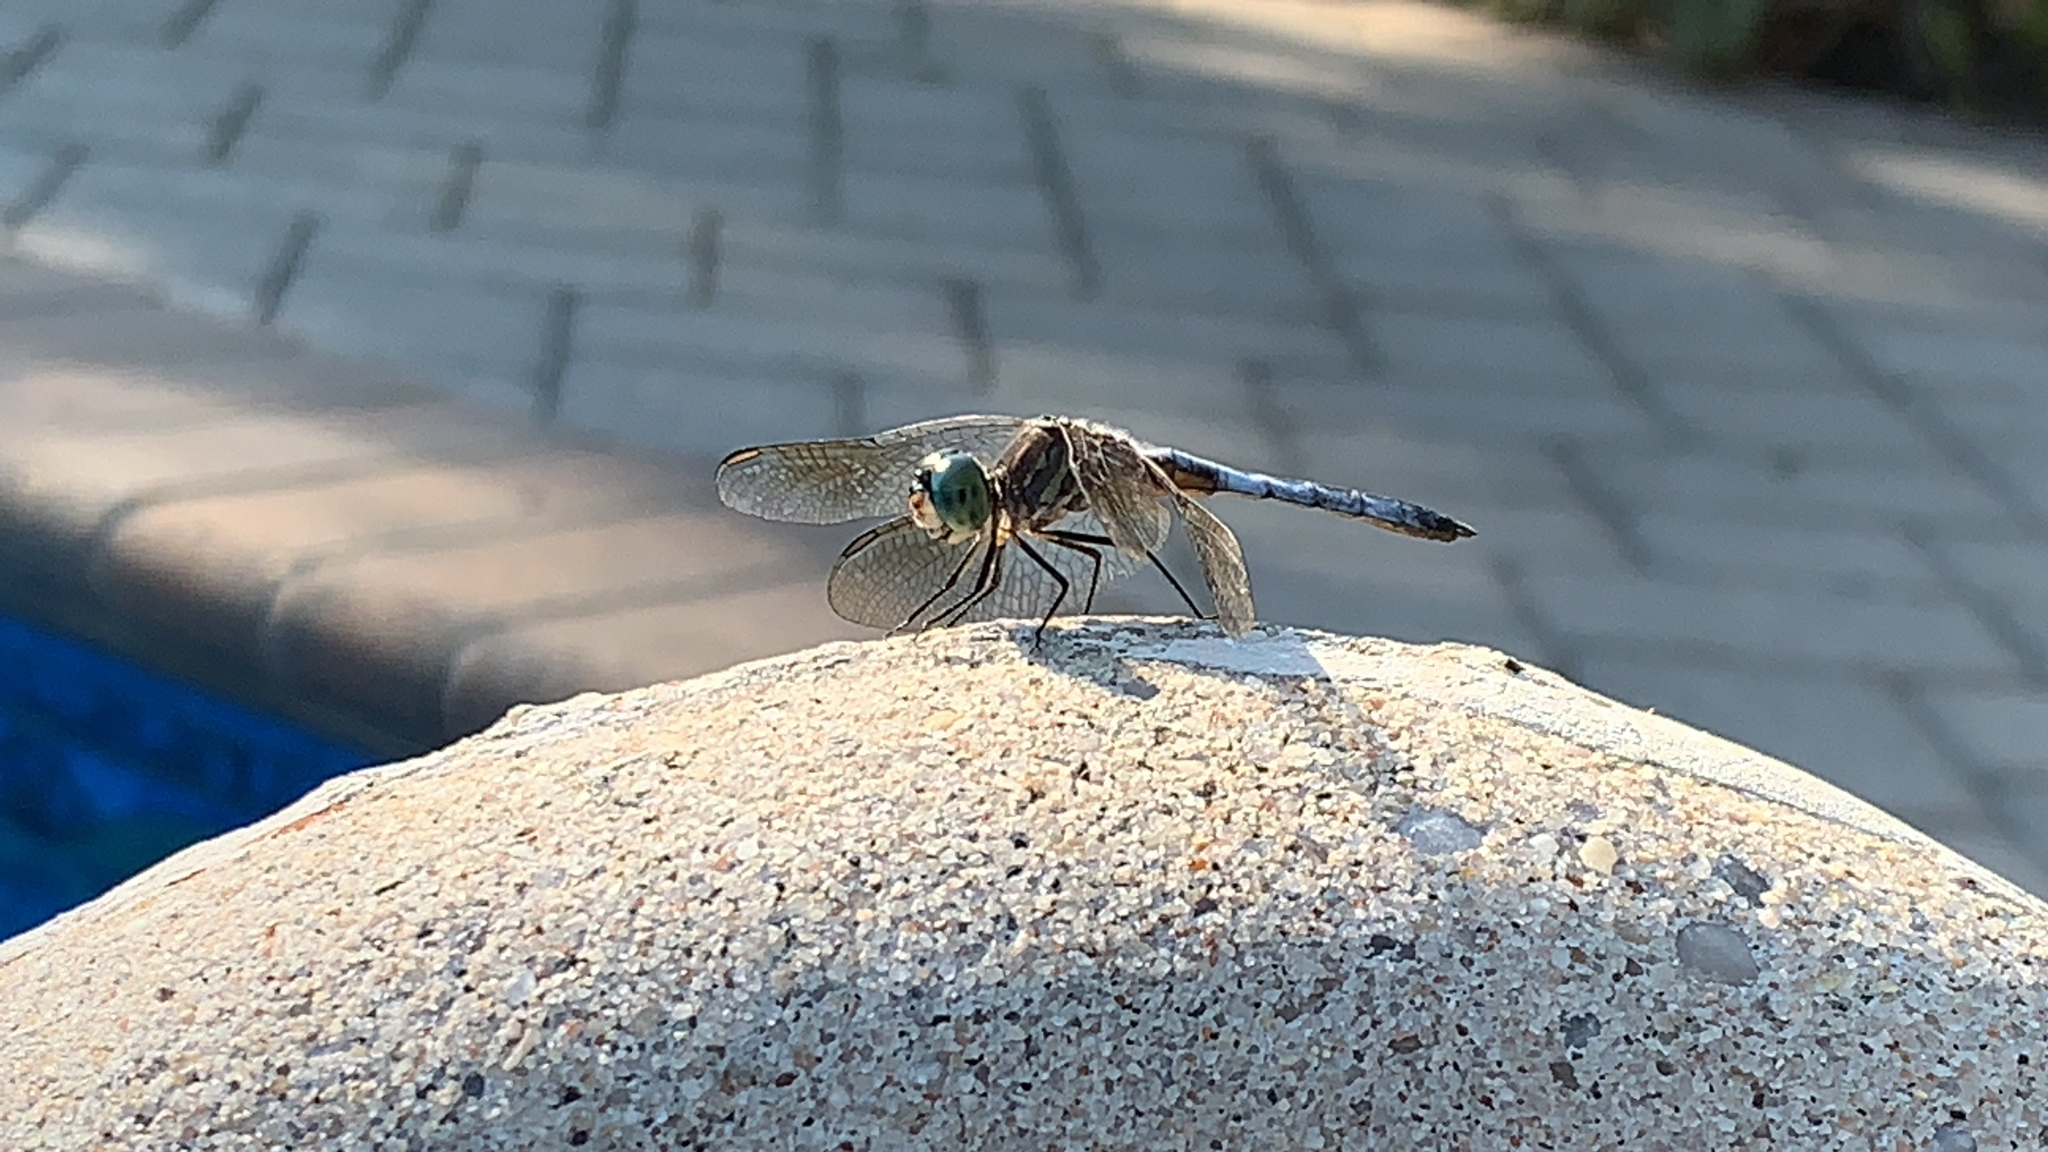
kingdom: Animalia
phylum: Arthropoda
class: Insecta
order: Odonata
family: Libellulidae
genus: Pachydiplax
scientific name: Pachydiplax longipennis
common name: Blue dasher
